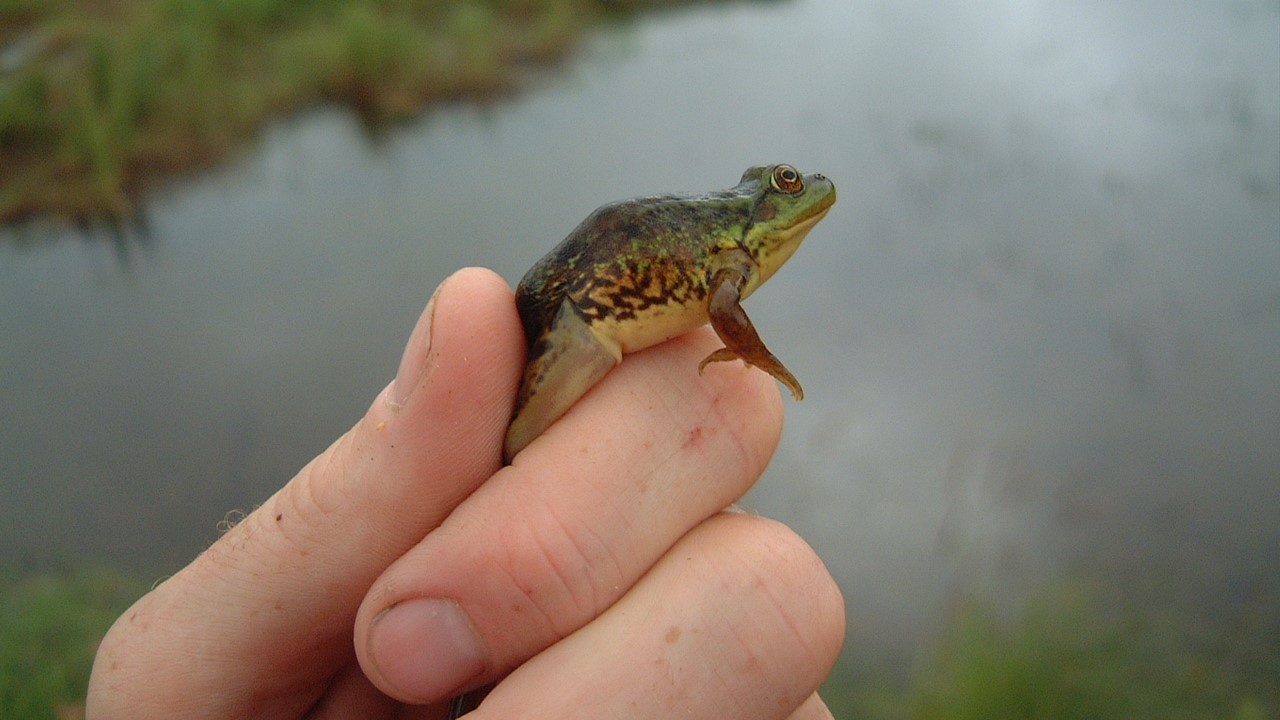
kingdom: Animalia
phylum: Chordata
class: Amphibia
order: Anura
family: Ranidae
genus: Lithobates
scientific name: Lithobates
